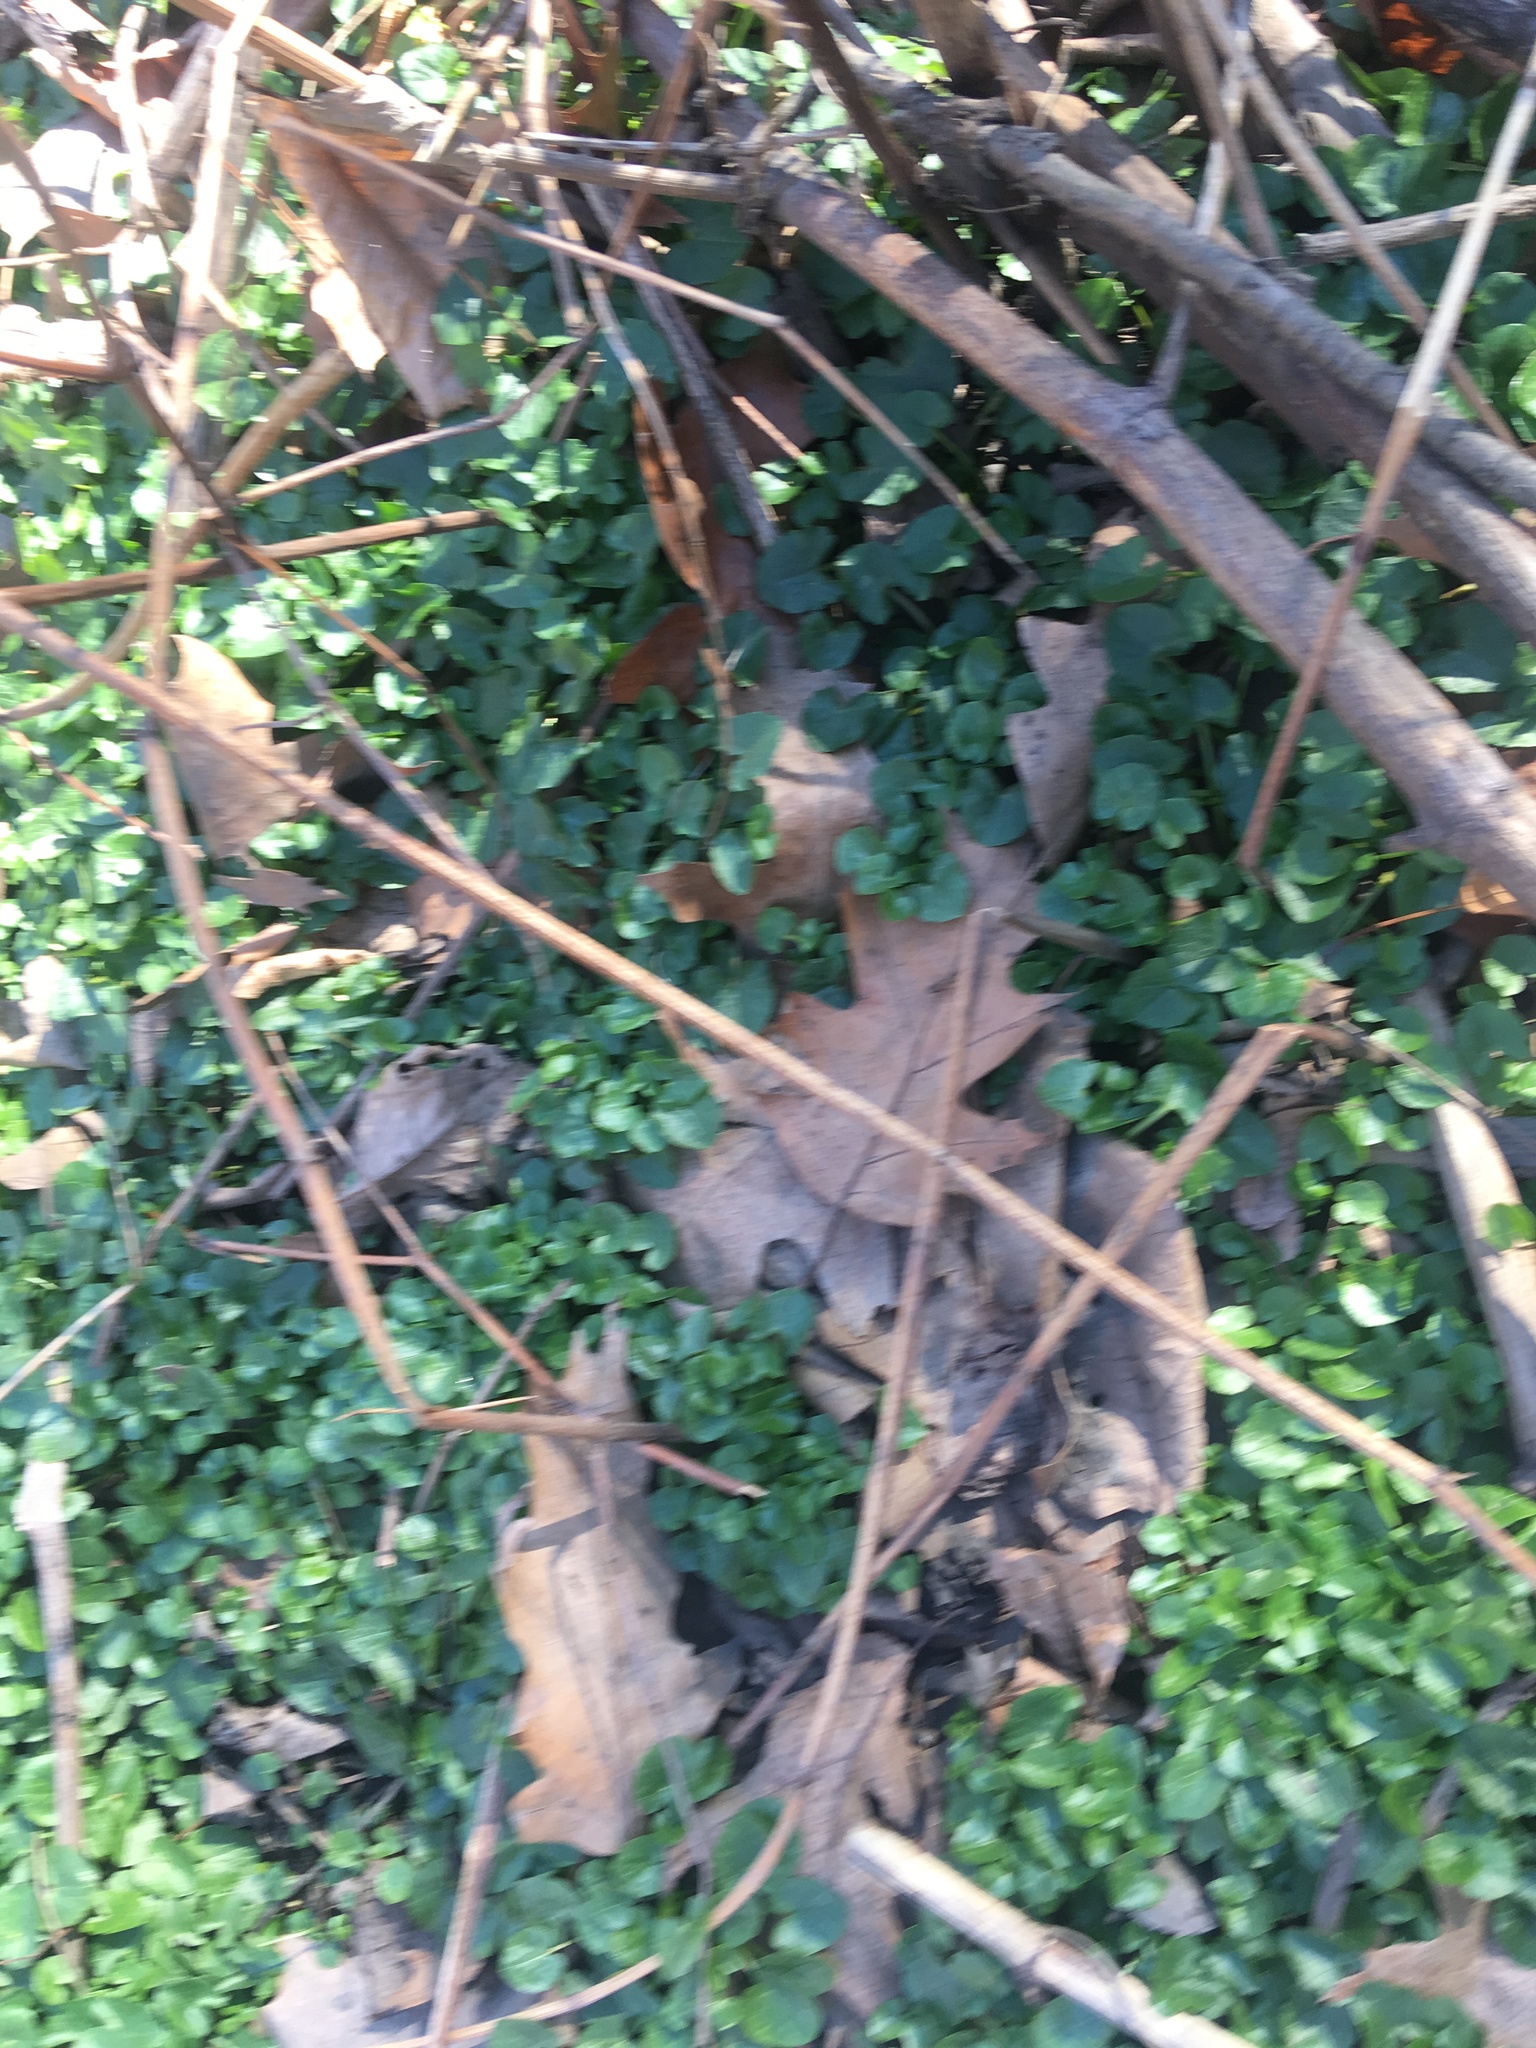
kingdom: Plantae
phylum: Tracheophyta
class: Magnoliopsida
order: Ranunculales
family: Ranunculaceae
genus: Ficaria
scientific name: Ficaria verna
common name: Lesser celandine
